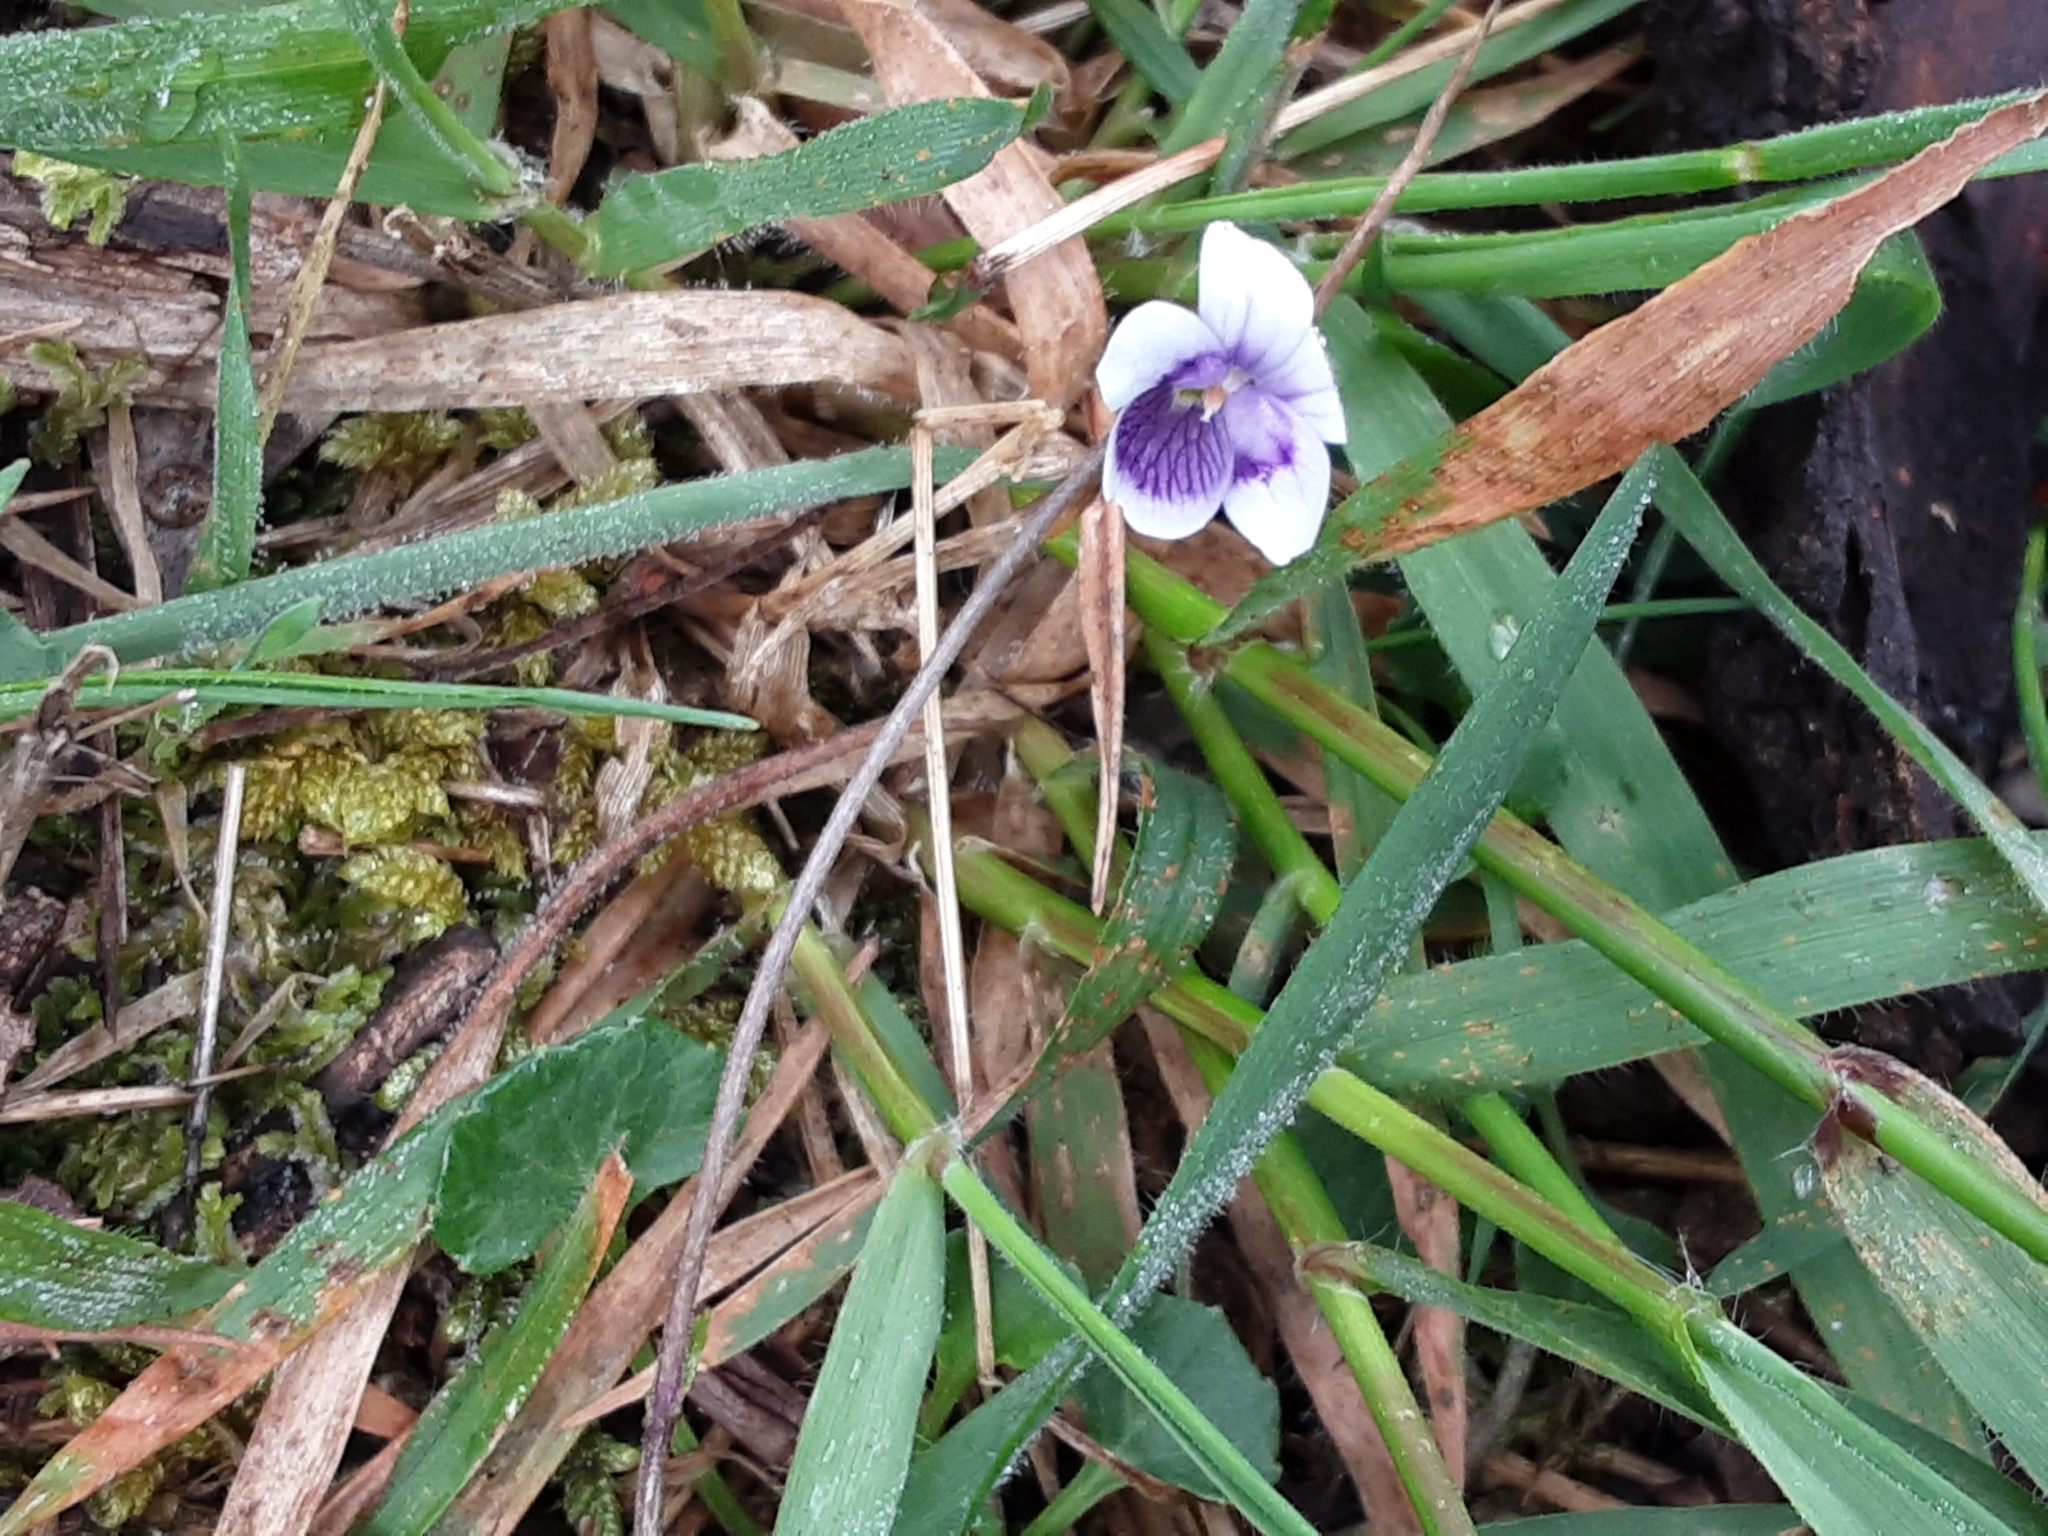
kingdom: Plantae
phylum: Tracheophyta
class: Magnoliopsida
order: Malpighiales
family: Violaceae
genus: Viola
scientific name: Viola hederacea
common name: Australian violet
